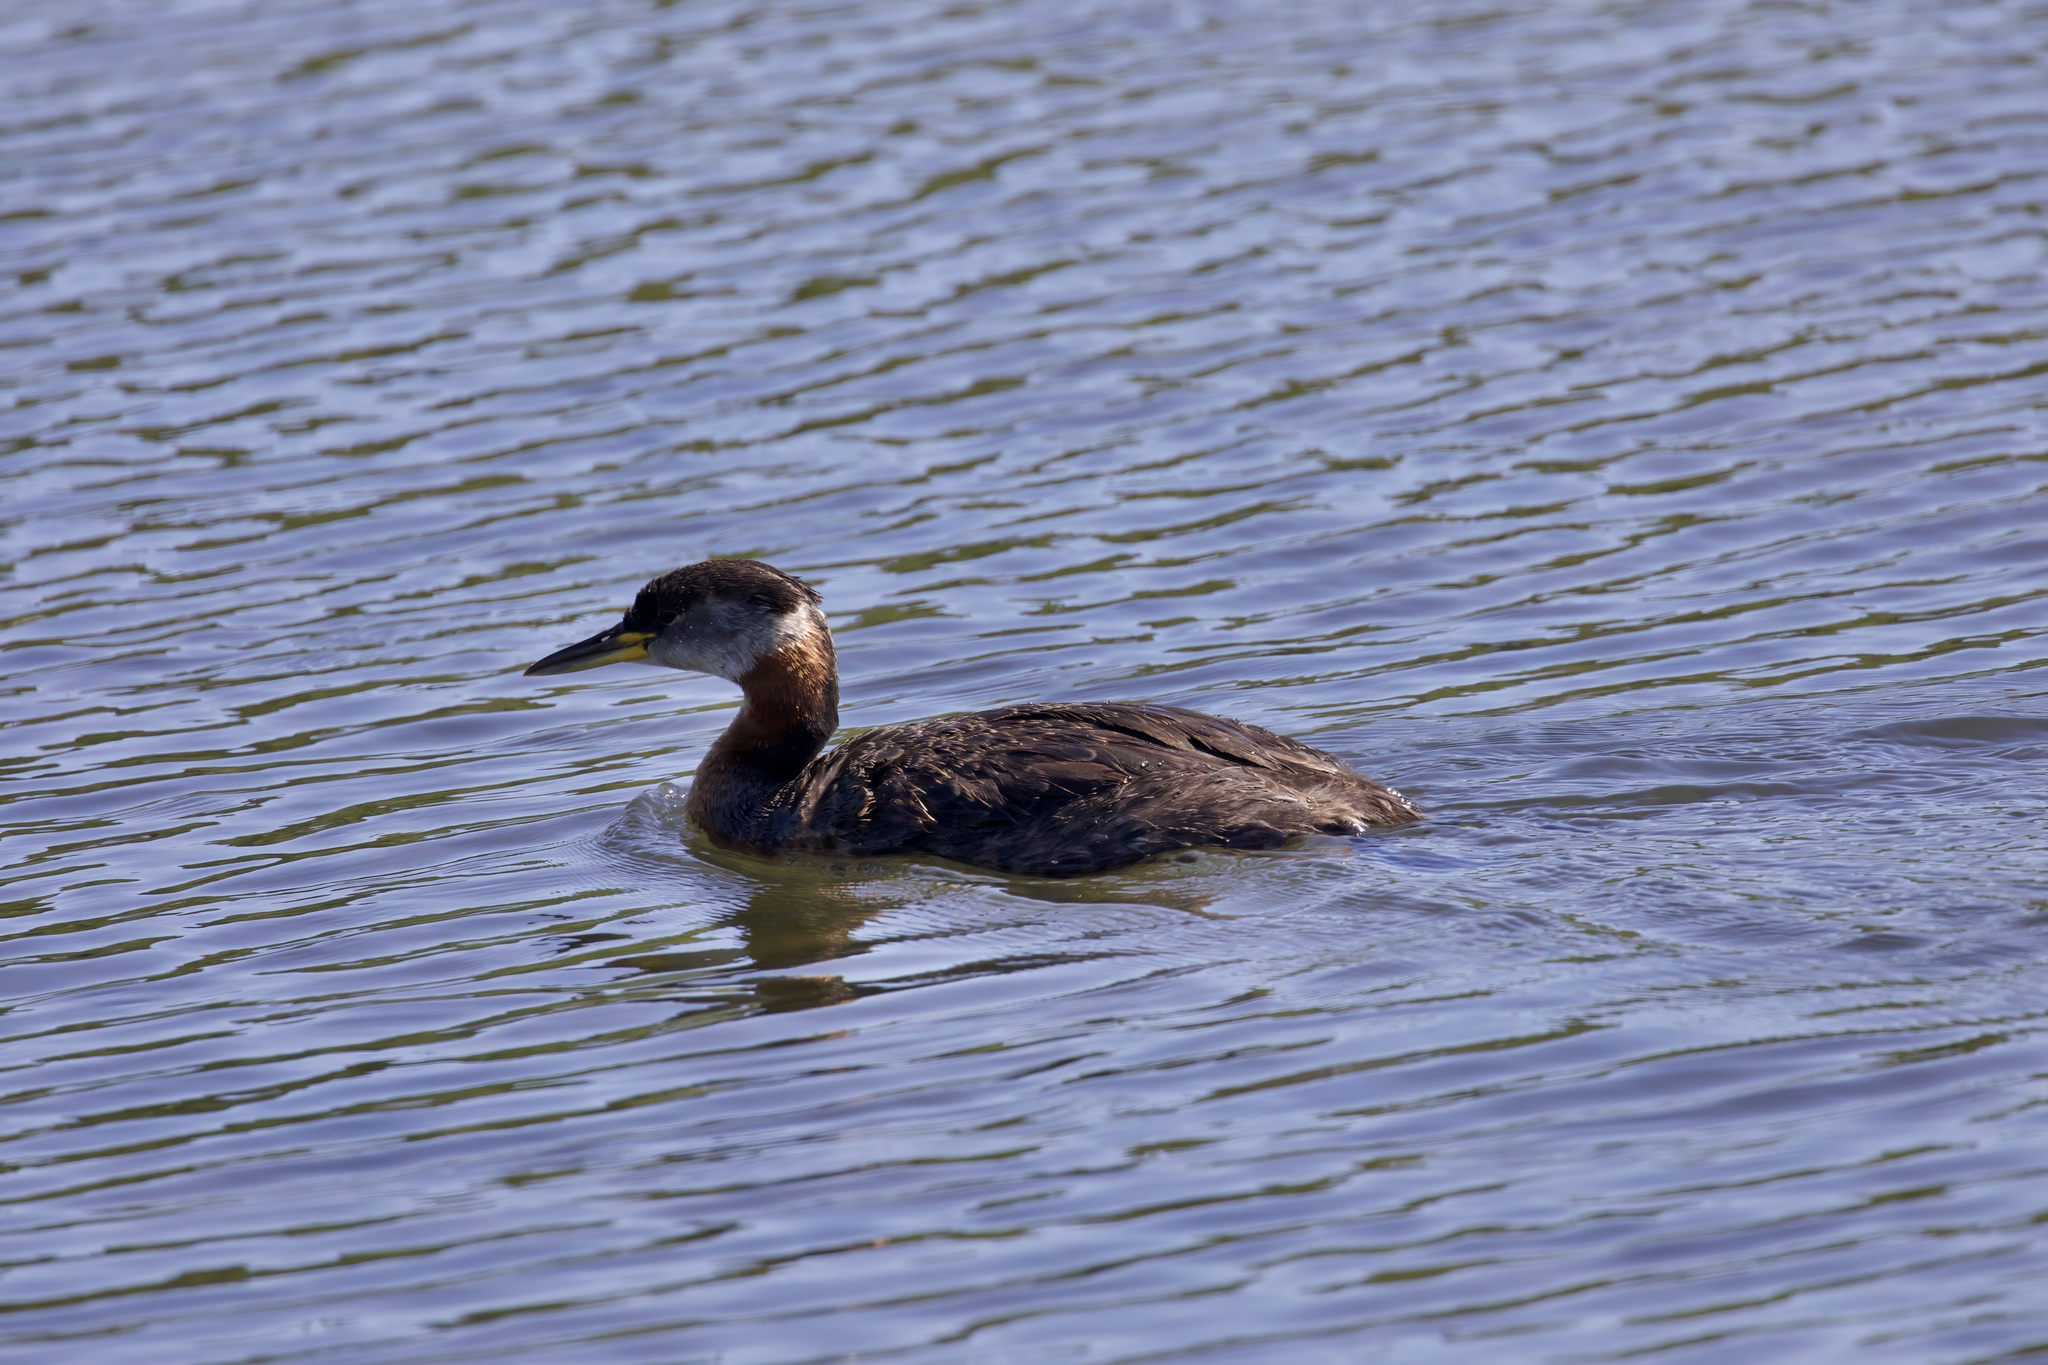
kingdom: Animalia
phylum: Chordata
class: Aves
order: Podicipediformes
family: Podicipedidae
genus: Podiceps
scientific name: Podiceps grisegena
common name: Red-necked grebe
